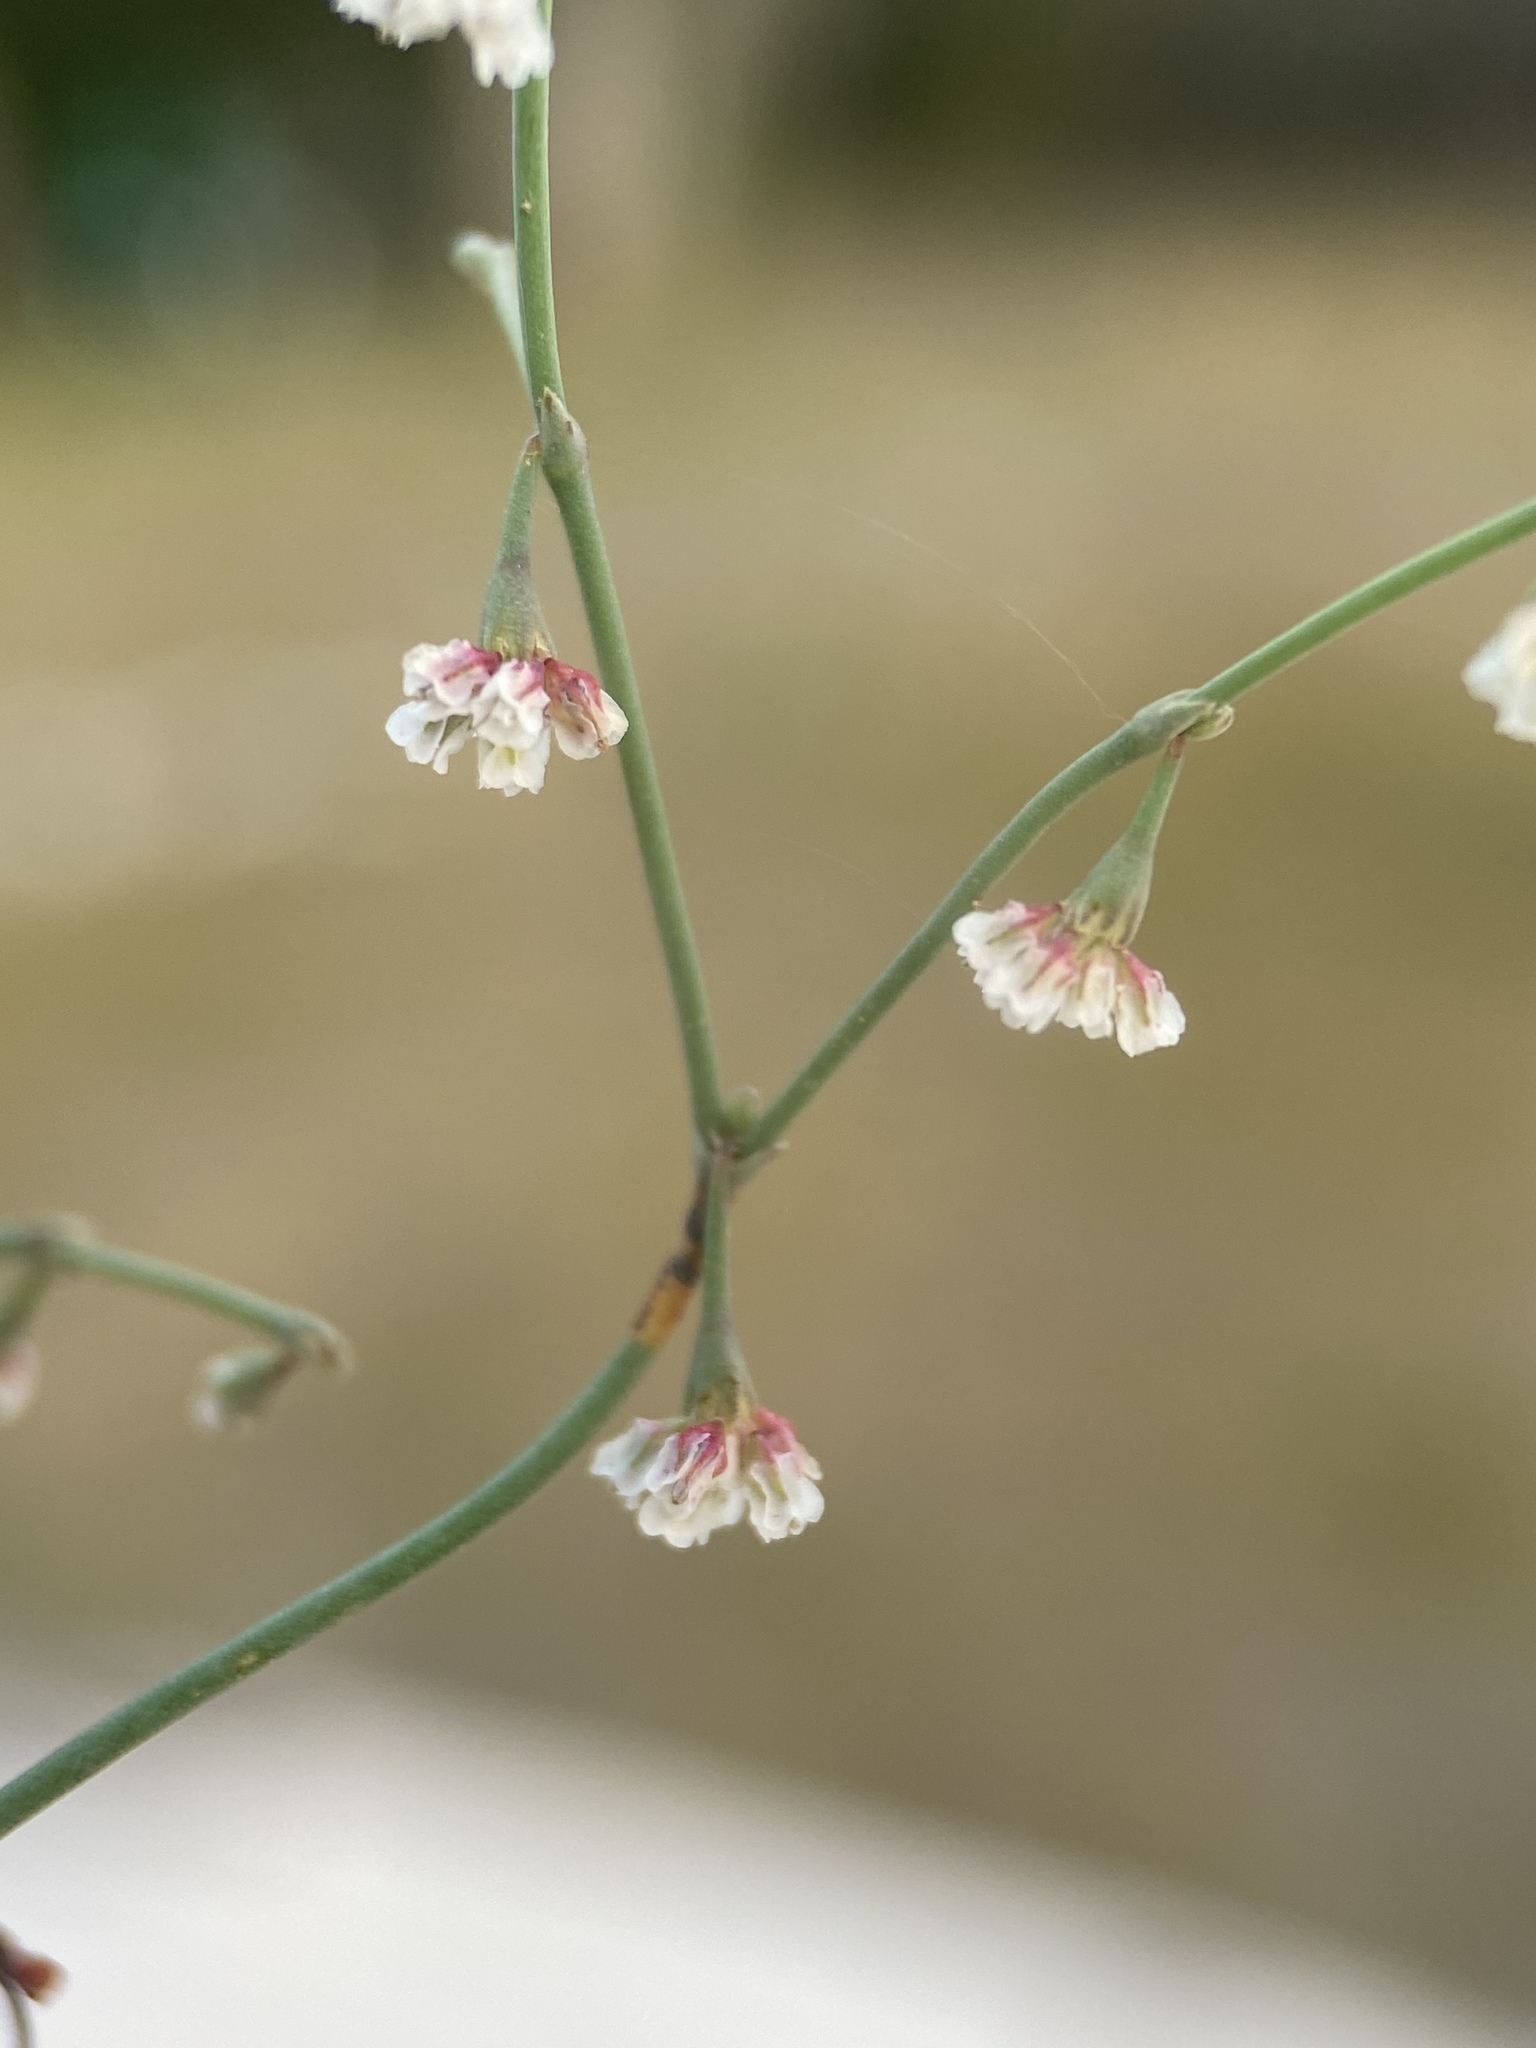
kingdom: Plantae
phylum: Tracheophyta
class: Magnoliopsida
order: Caryophyllales
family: Polygonaceae
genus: Eriogonum
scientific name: Eriogonum cernuum
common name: Nodding wild buckwheat
